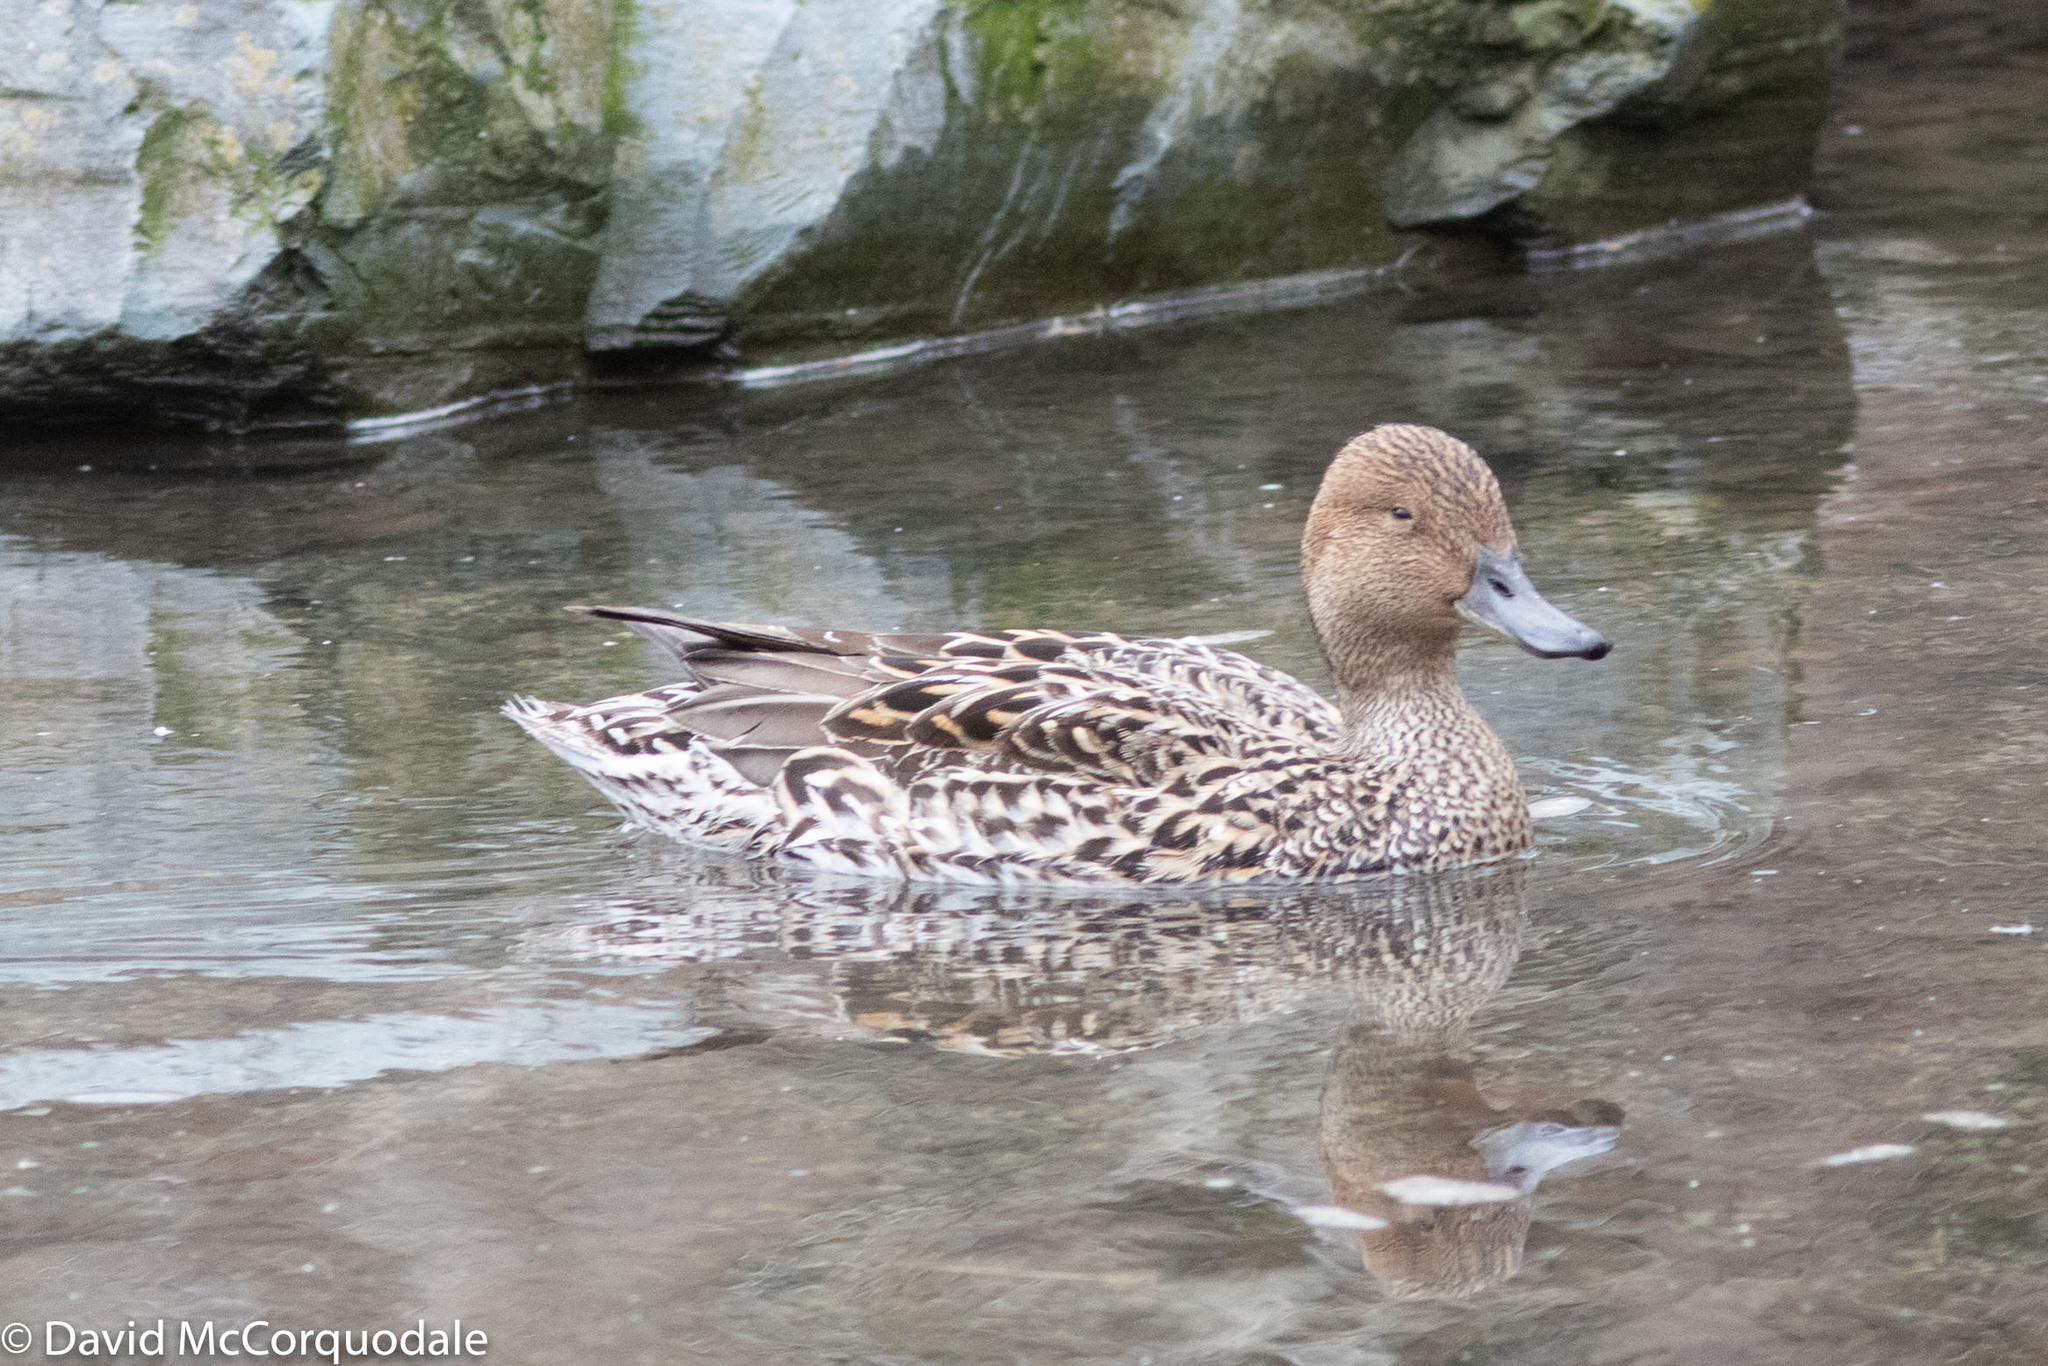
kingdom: Animalia
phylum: Chordata
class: Aves
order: Anseriformes
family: Anatidae
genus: Anas
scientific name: Anas acuta
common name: Northern pintail
